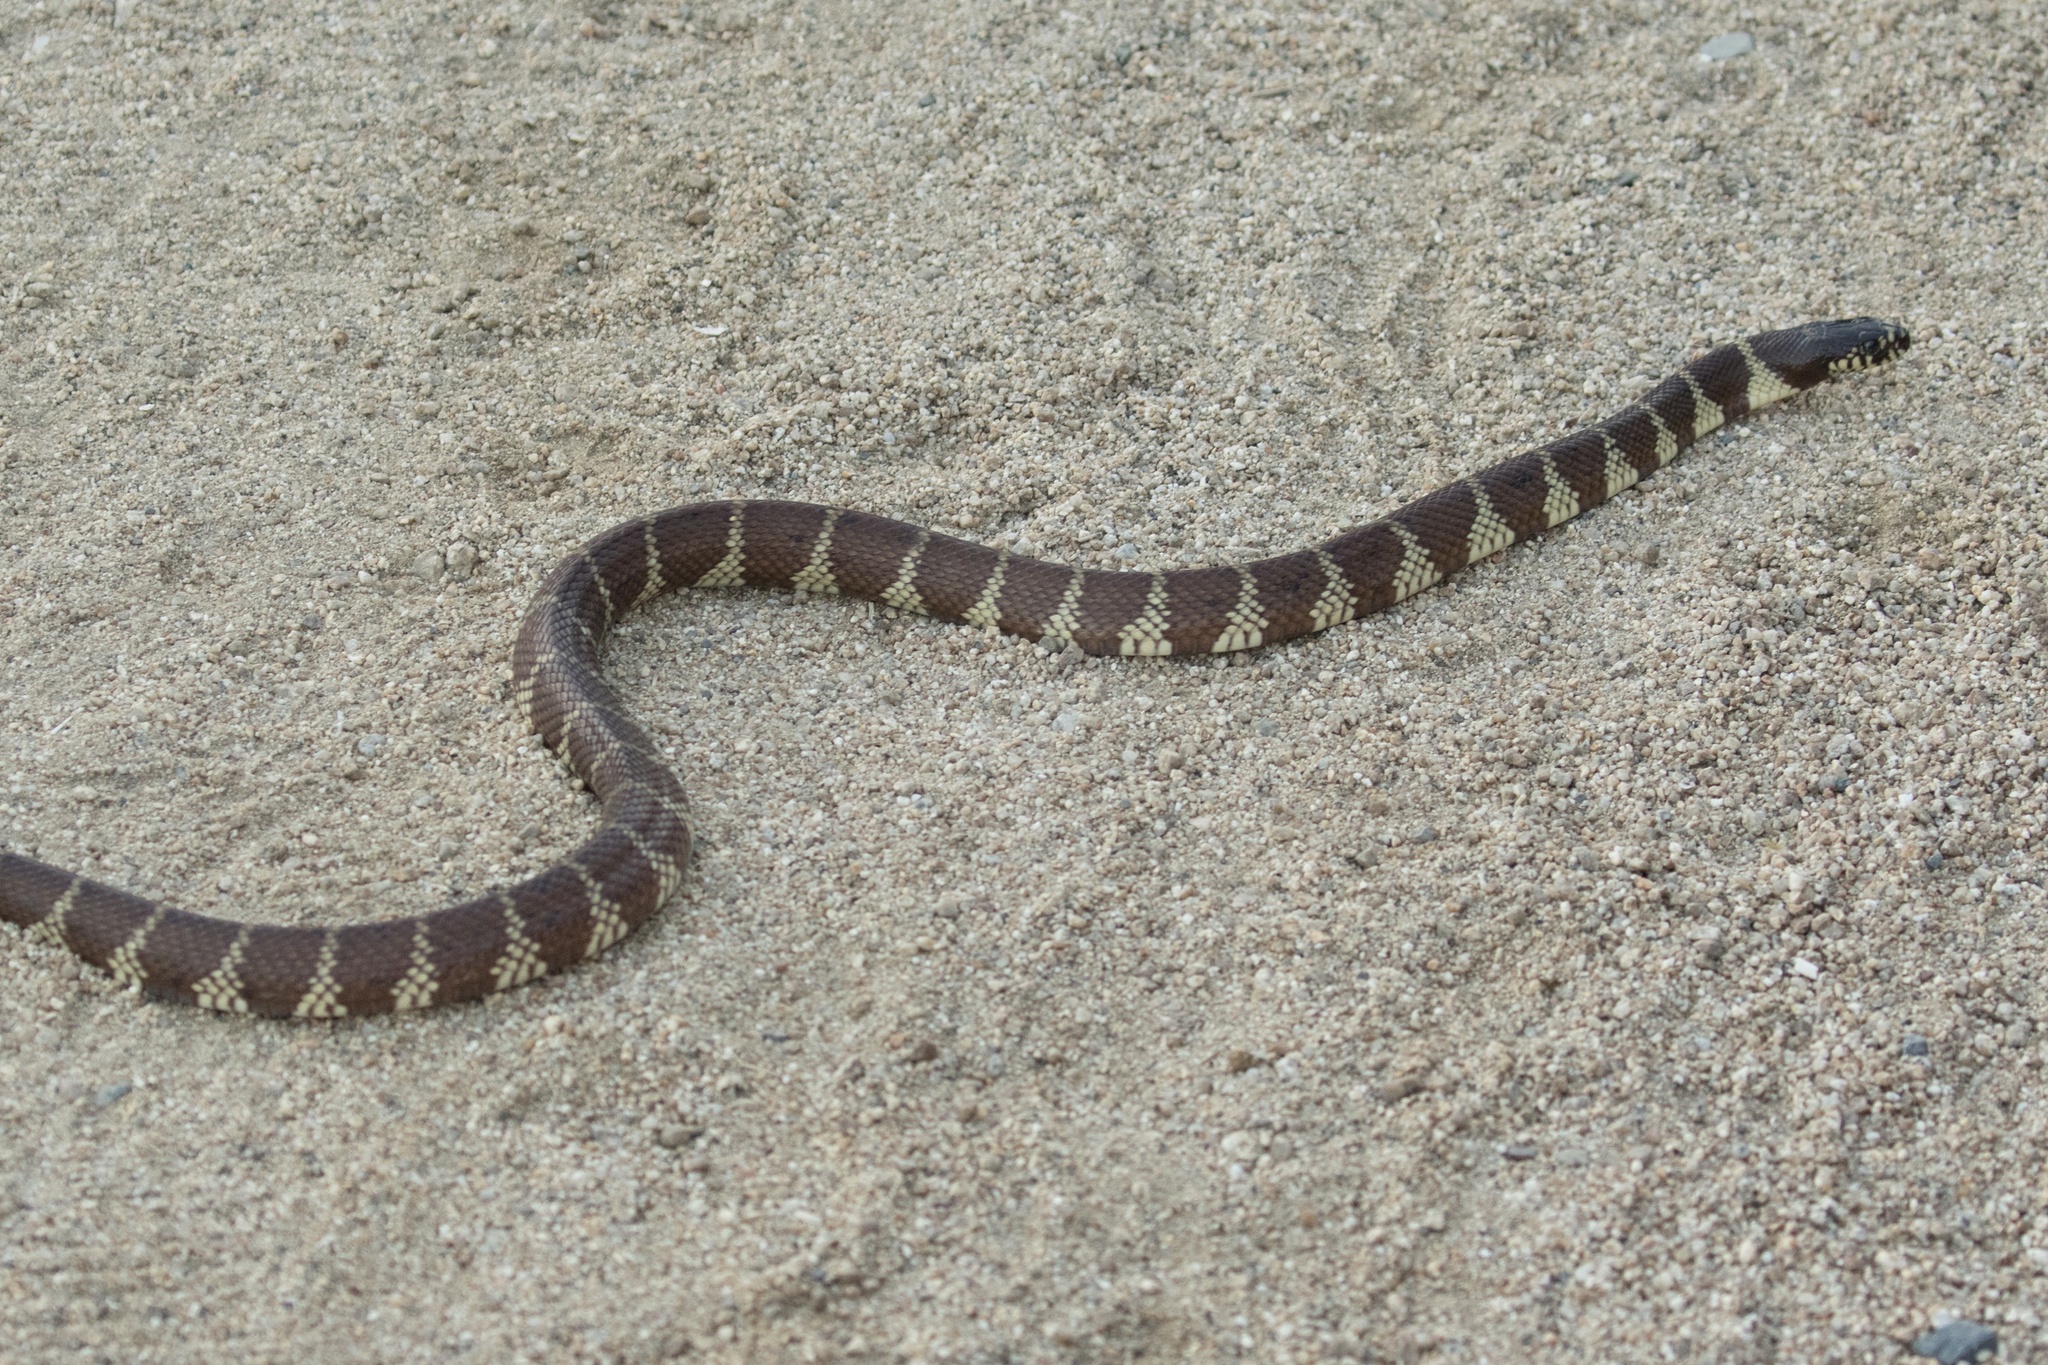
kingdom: Animalia
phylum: Chordata
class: Squamata
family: Colubridae
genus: Lampropeltis
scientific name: Lampropeltis californiae
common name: California kingsnake
